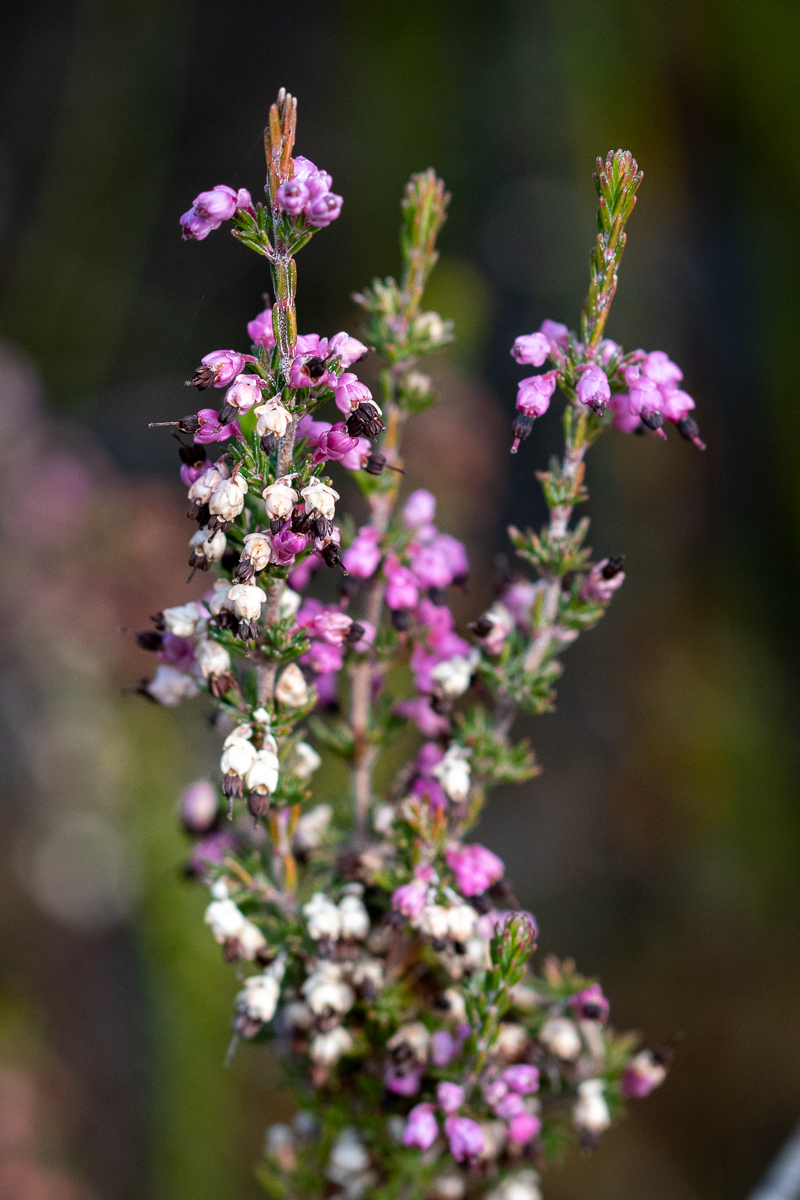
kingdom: Plantae
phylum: Tracheophyta
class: Magnoliopsida
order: Ericales
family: Ericaceae
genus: Erica
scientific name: Erica placentiflora
